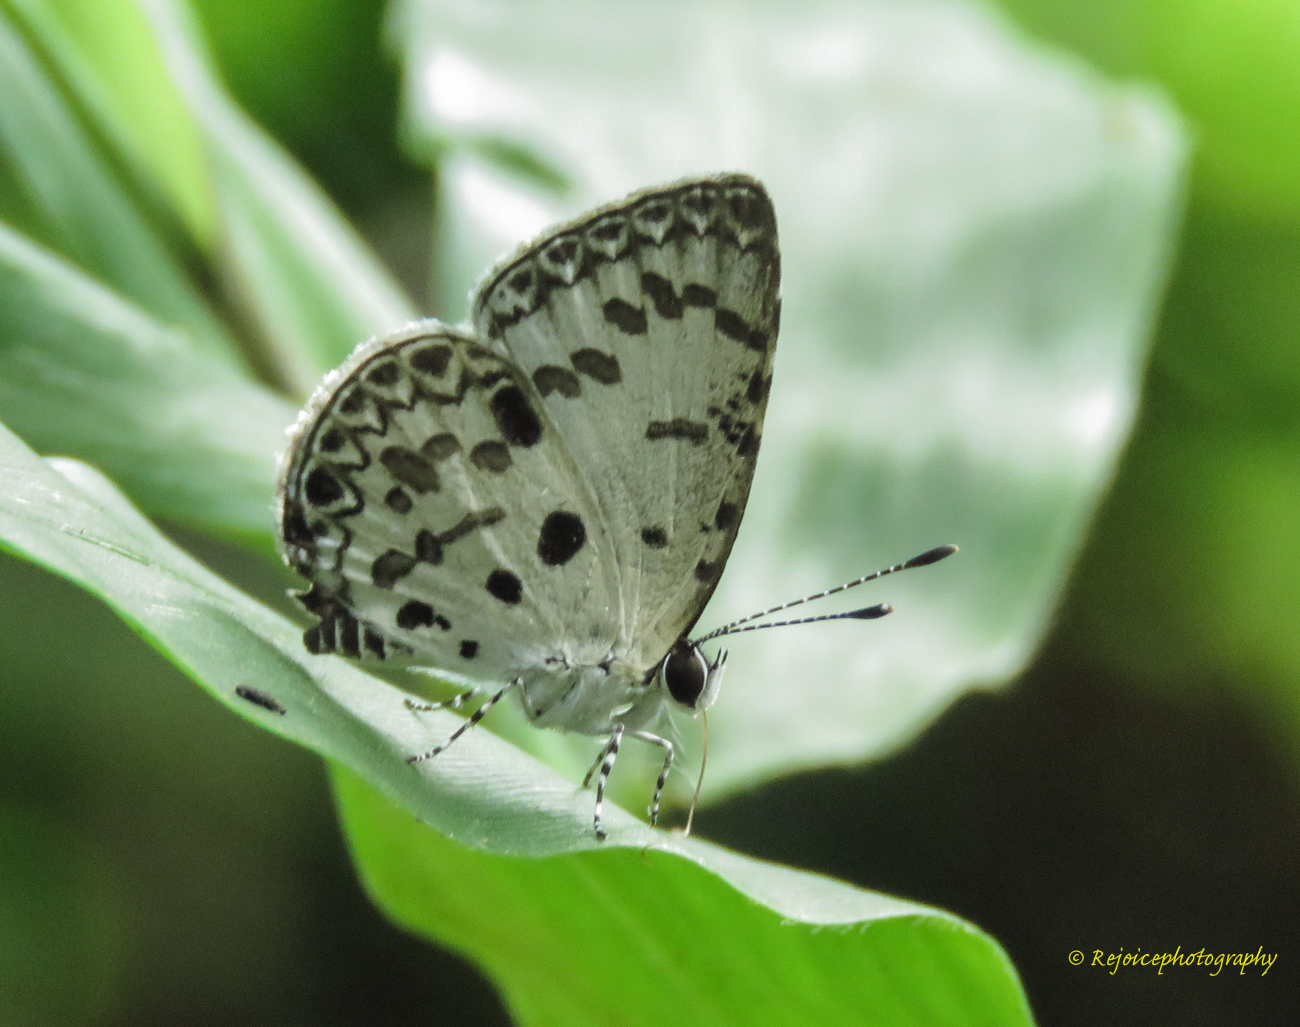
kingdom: Animalia
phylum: Arthropoda
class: Insecta
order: Lepidoptera
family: Lycaenidae
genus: Megisba
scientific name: Megisba malaya
